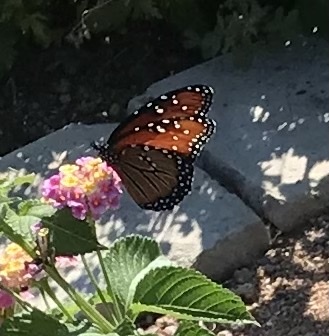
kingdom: Animalia
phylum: Arthropoda
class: Insecta
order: Lepidoptera
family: Nymphalidae
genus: Danaus
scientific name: Danaus gilippus
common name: Queen
